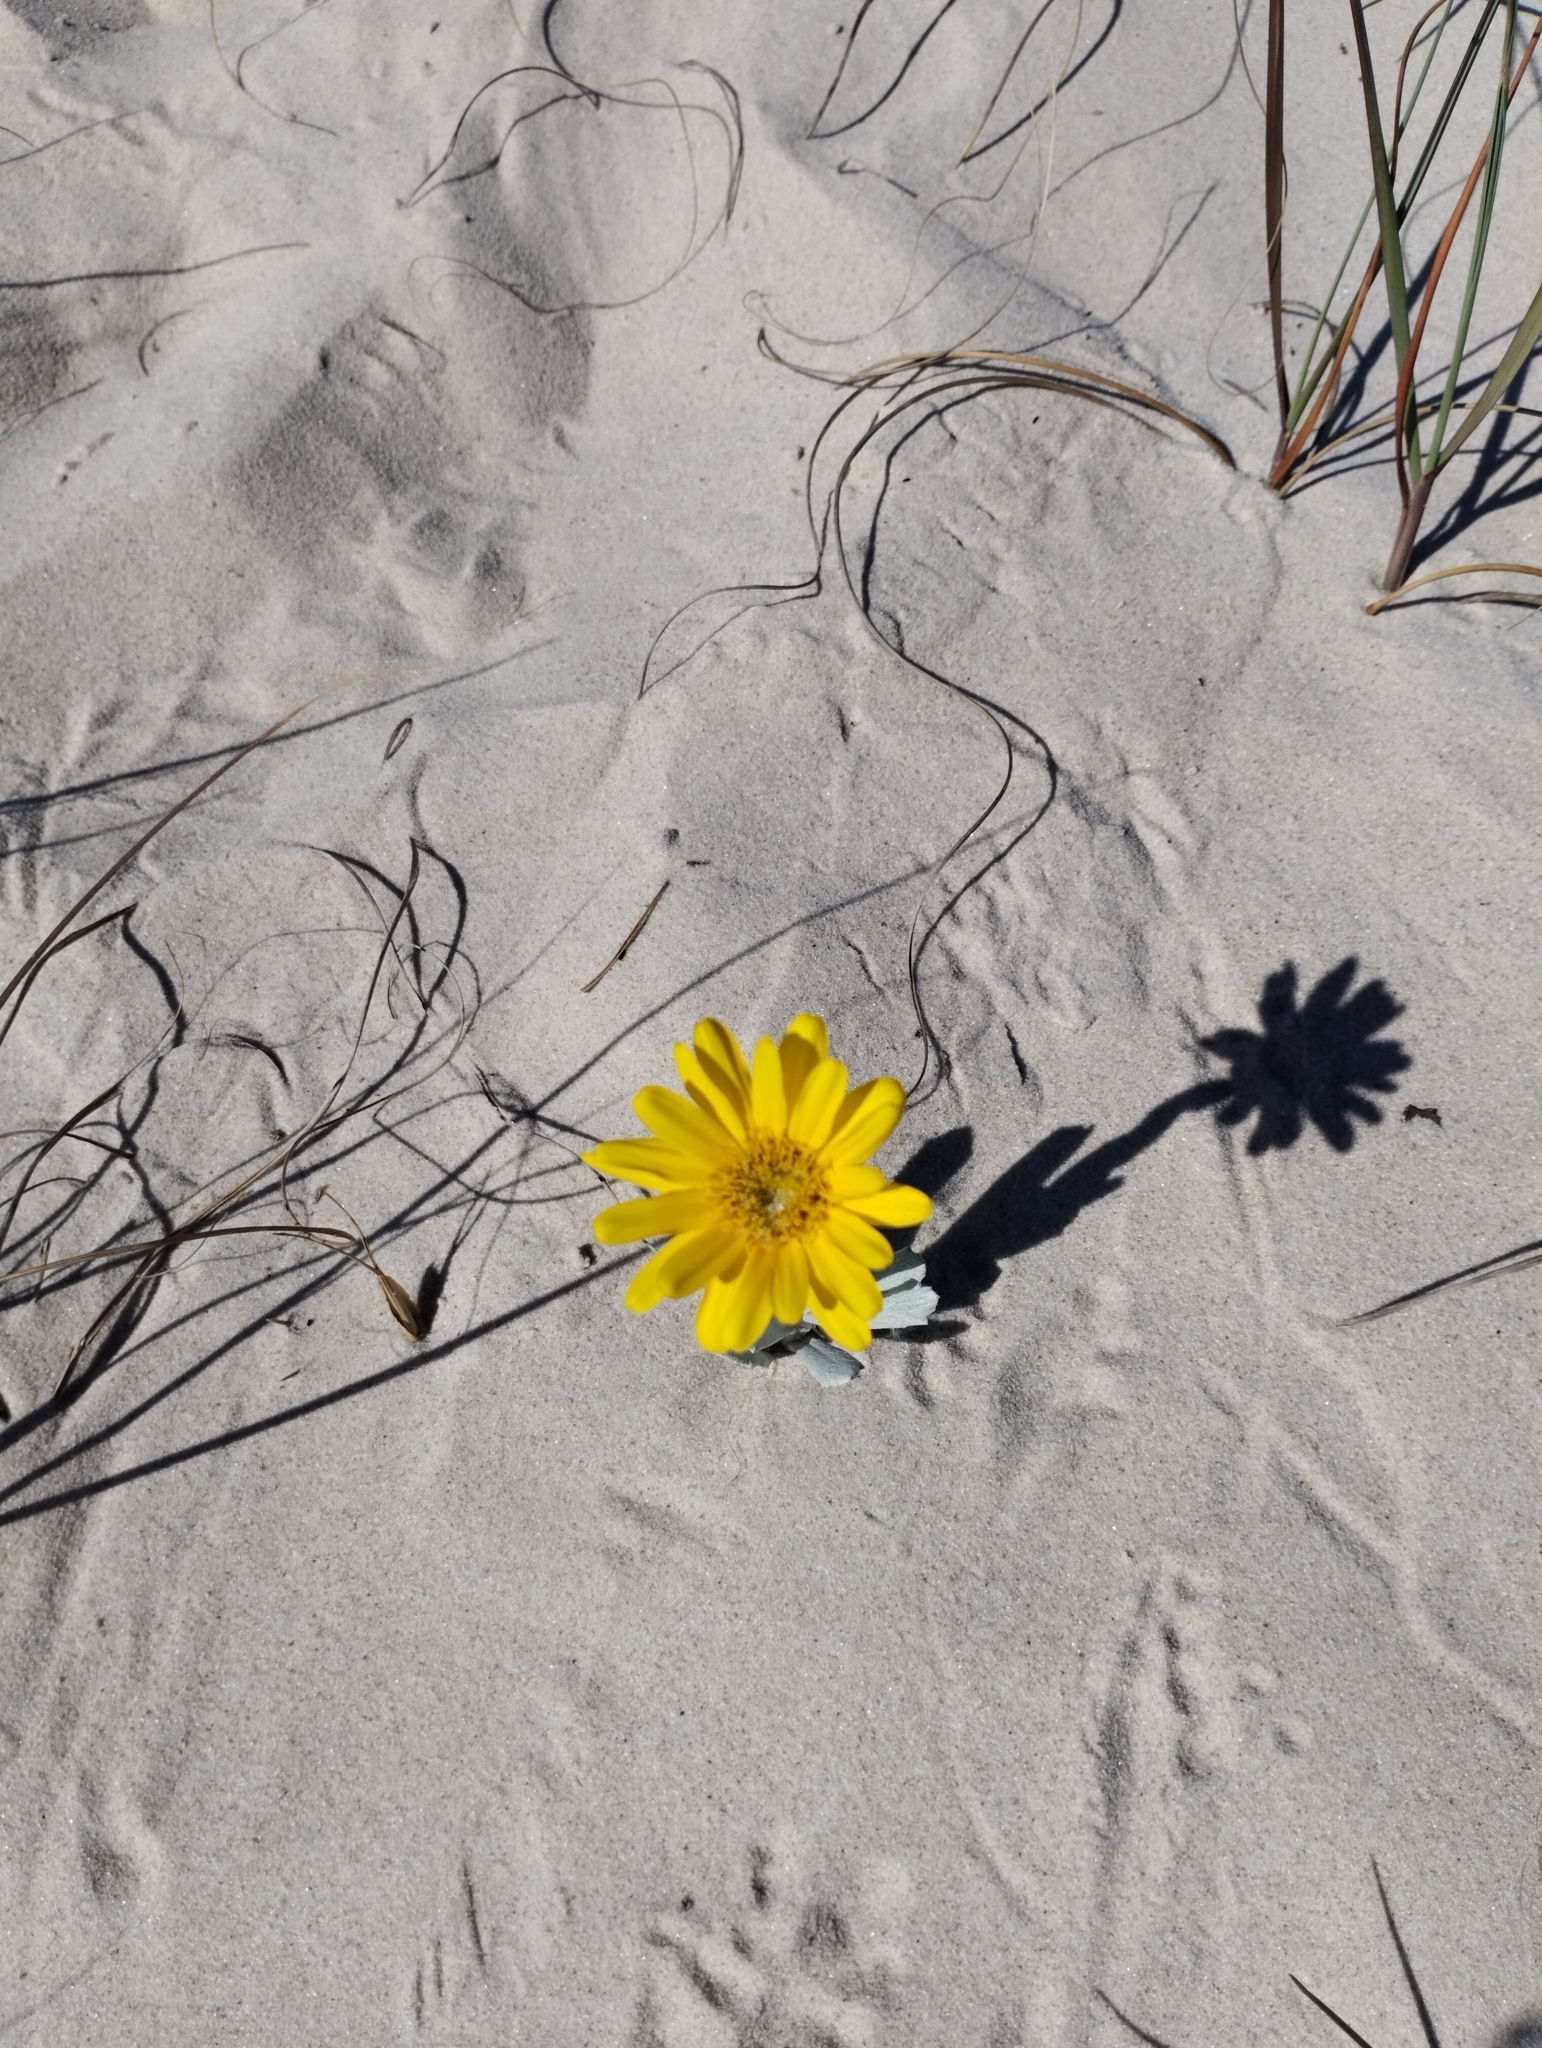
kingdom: Plantae
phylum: Tracheophyta
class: Magnoliopsida
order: Asterales
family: Asteraceae
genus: Senecio
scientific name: Senecio crassiflorus
